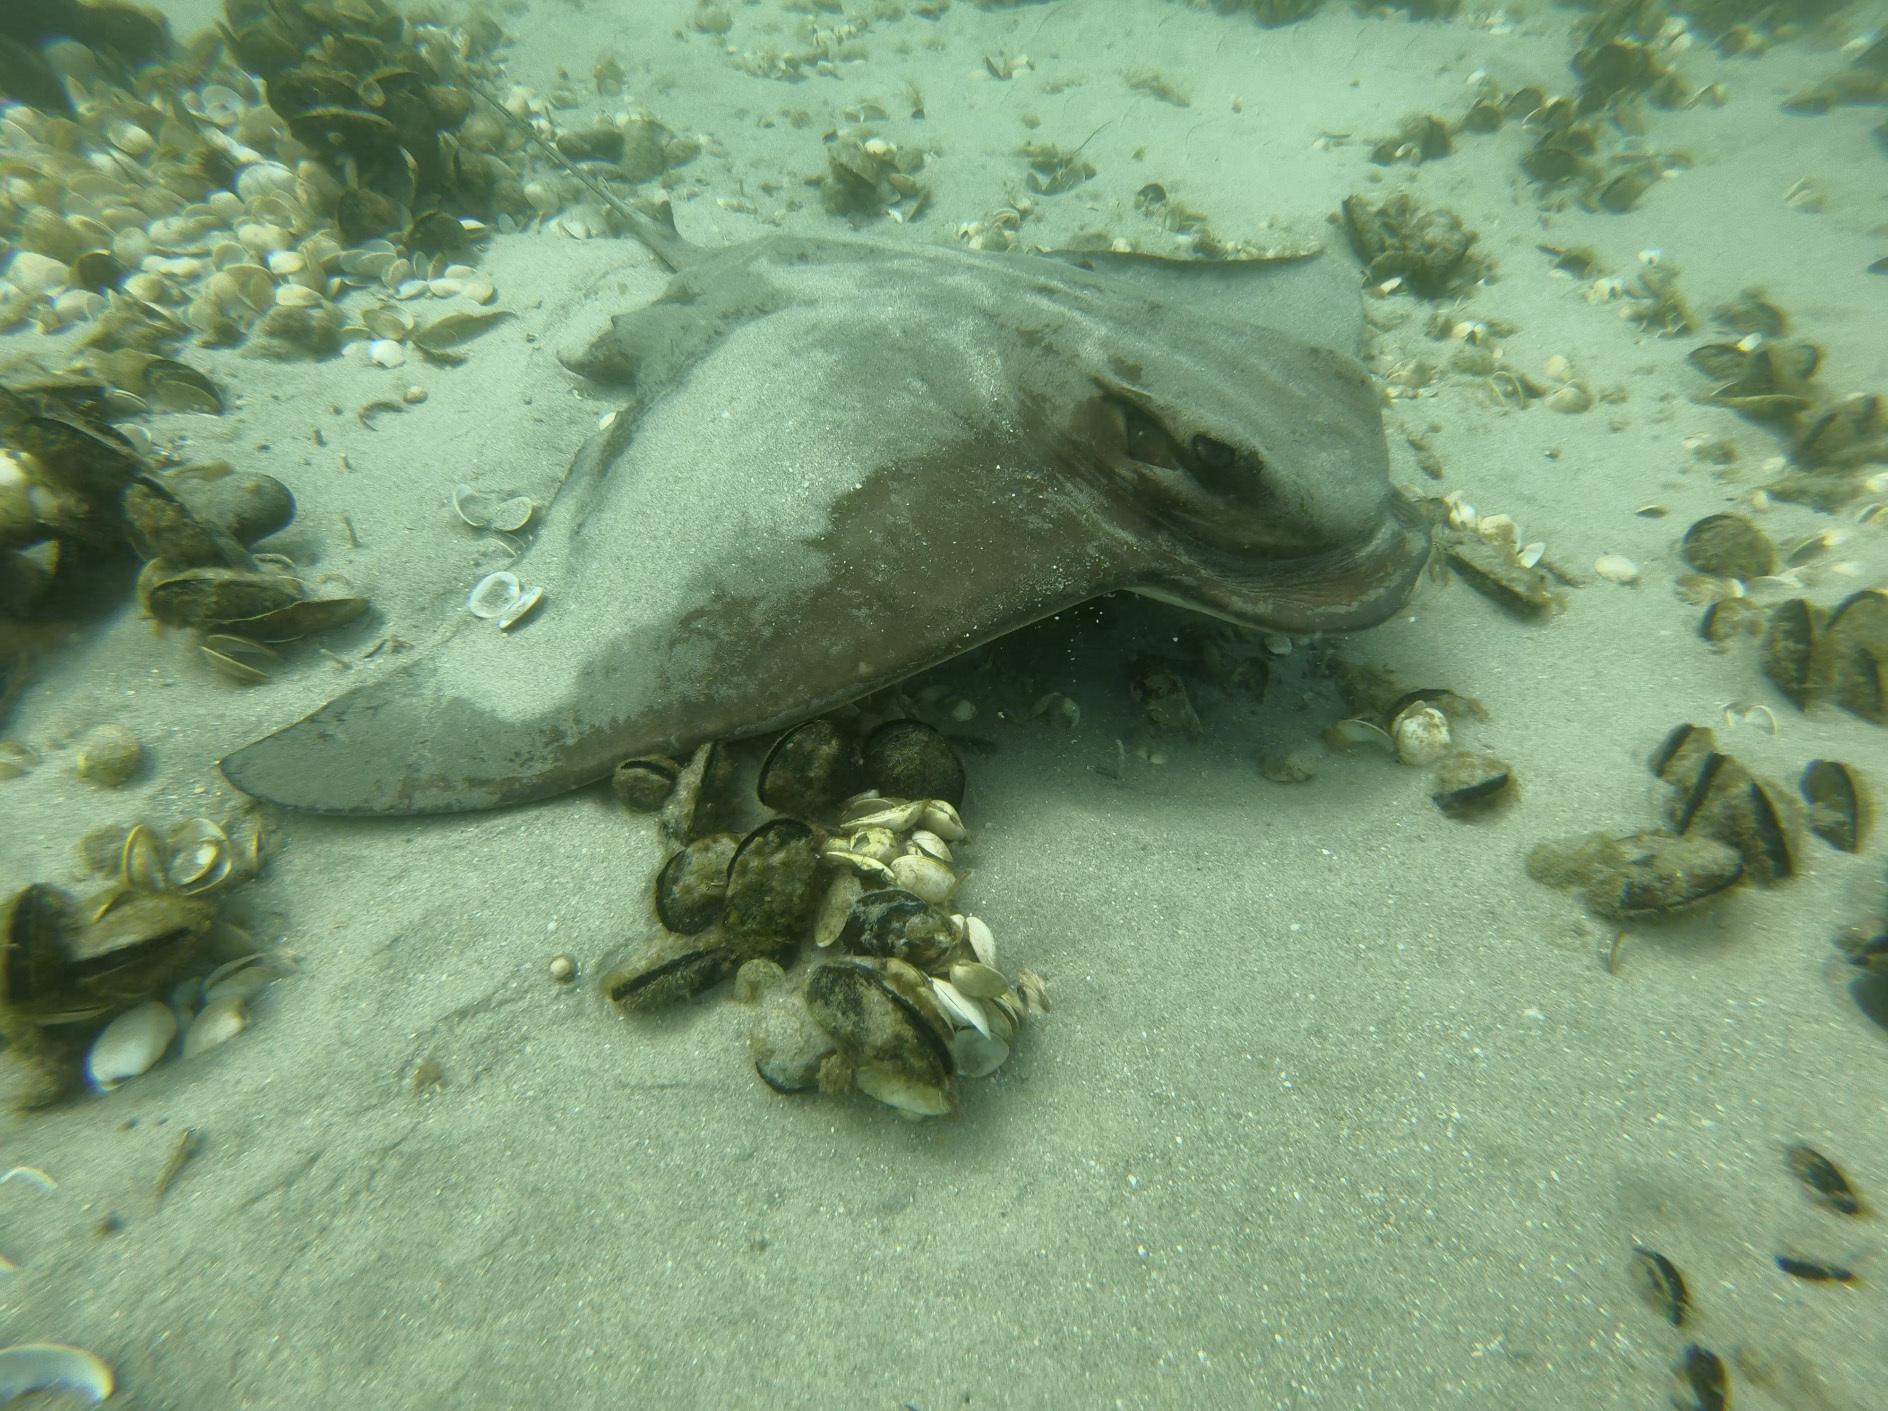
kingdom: Animalia
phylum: Chordata
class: Elasmobranchii
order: Myliobatiformes
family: Myliobatidae
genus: Myliobatis
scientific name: Myliobatis tenuicaudatus
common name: Eagle ray
